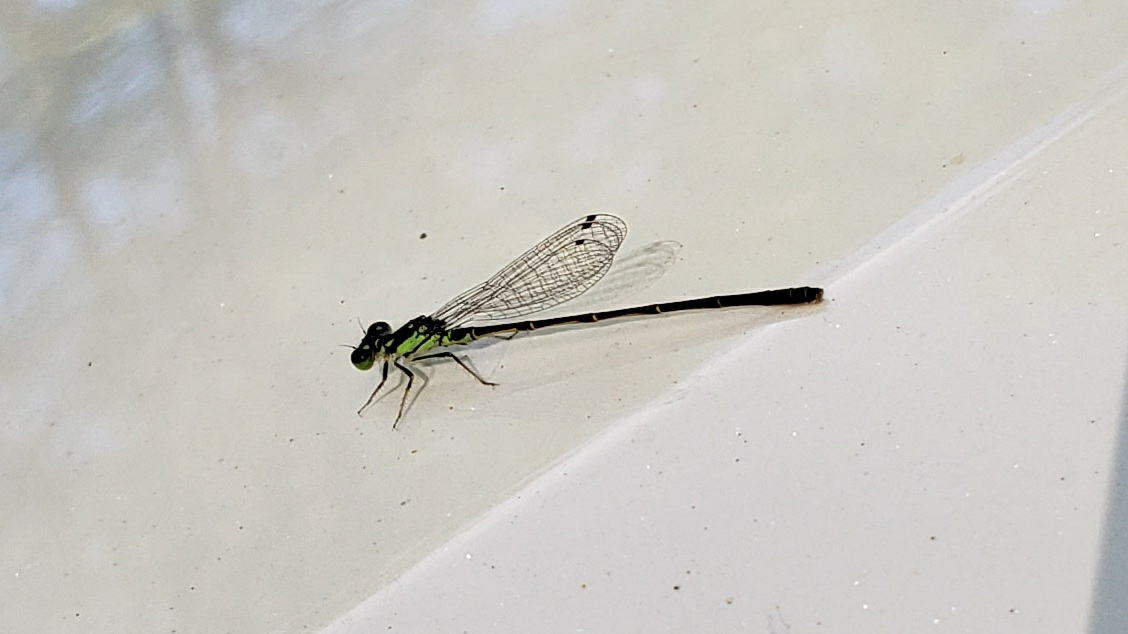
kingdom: Animalia
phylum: Arthropoda
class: Insecta
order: Odonata
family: Coenagrionidae
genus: Ischnura
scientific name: Ischnura posita
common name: Fragile forktail
